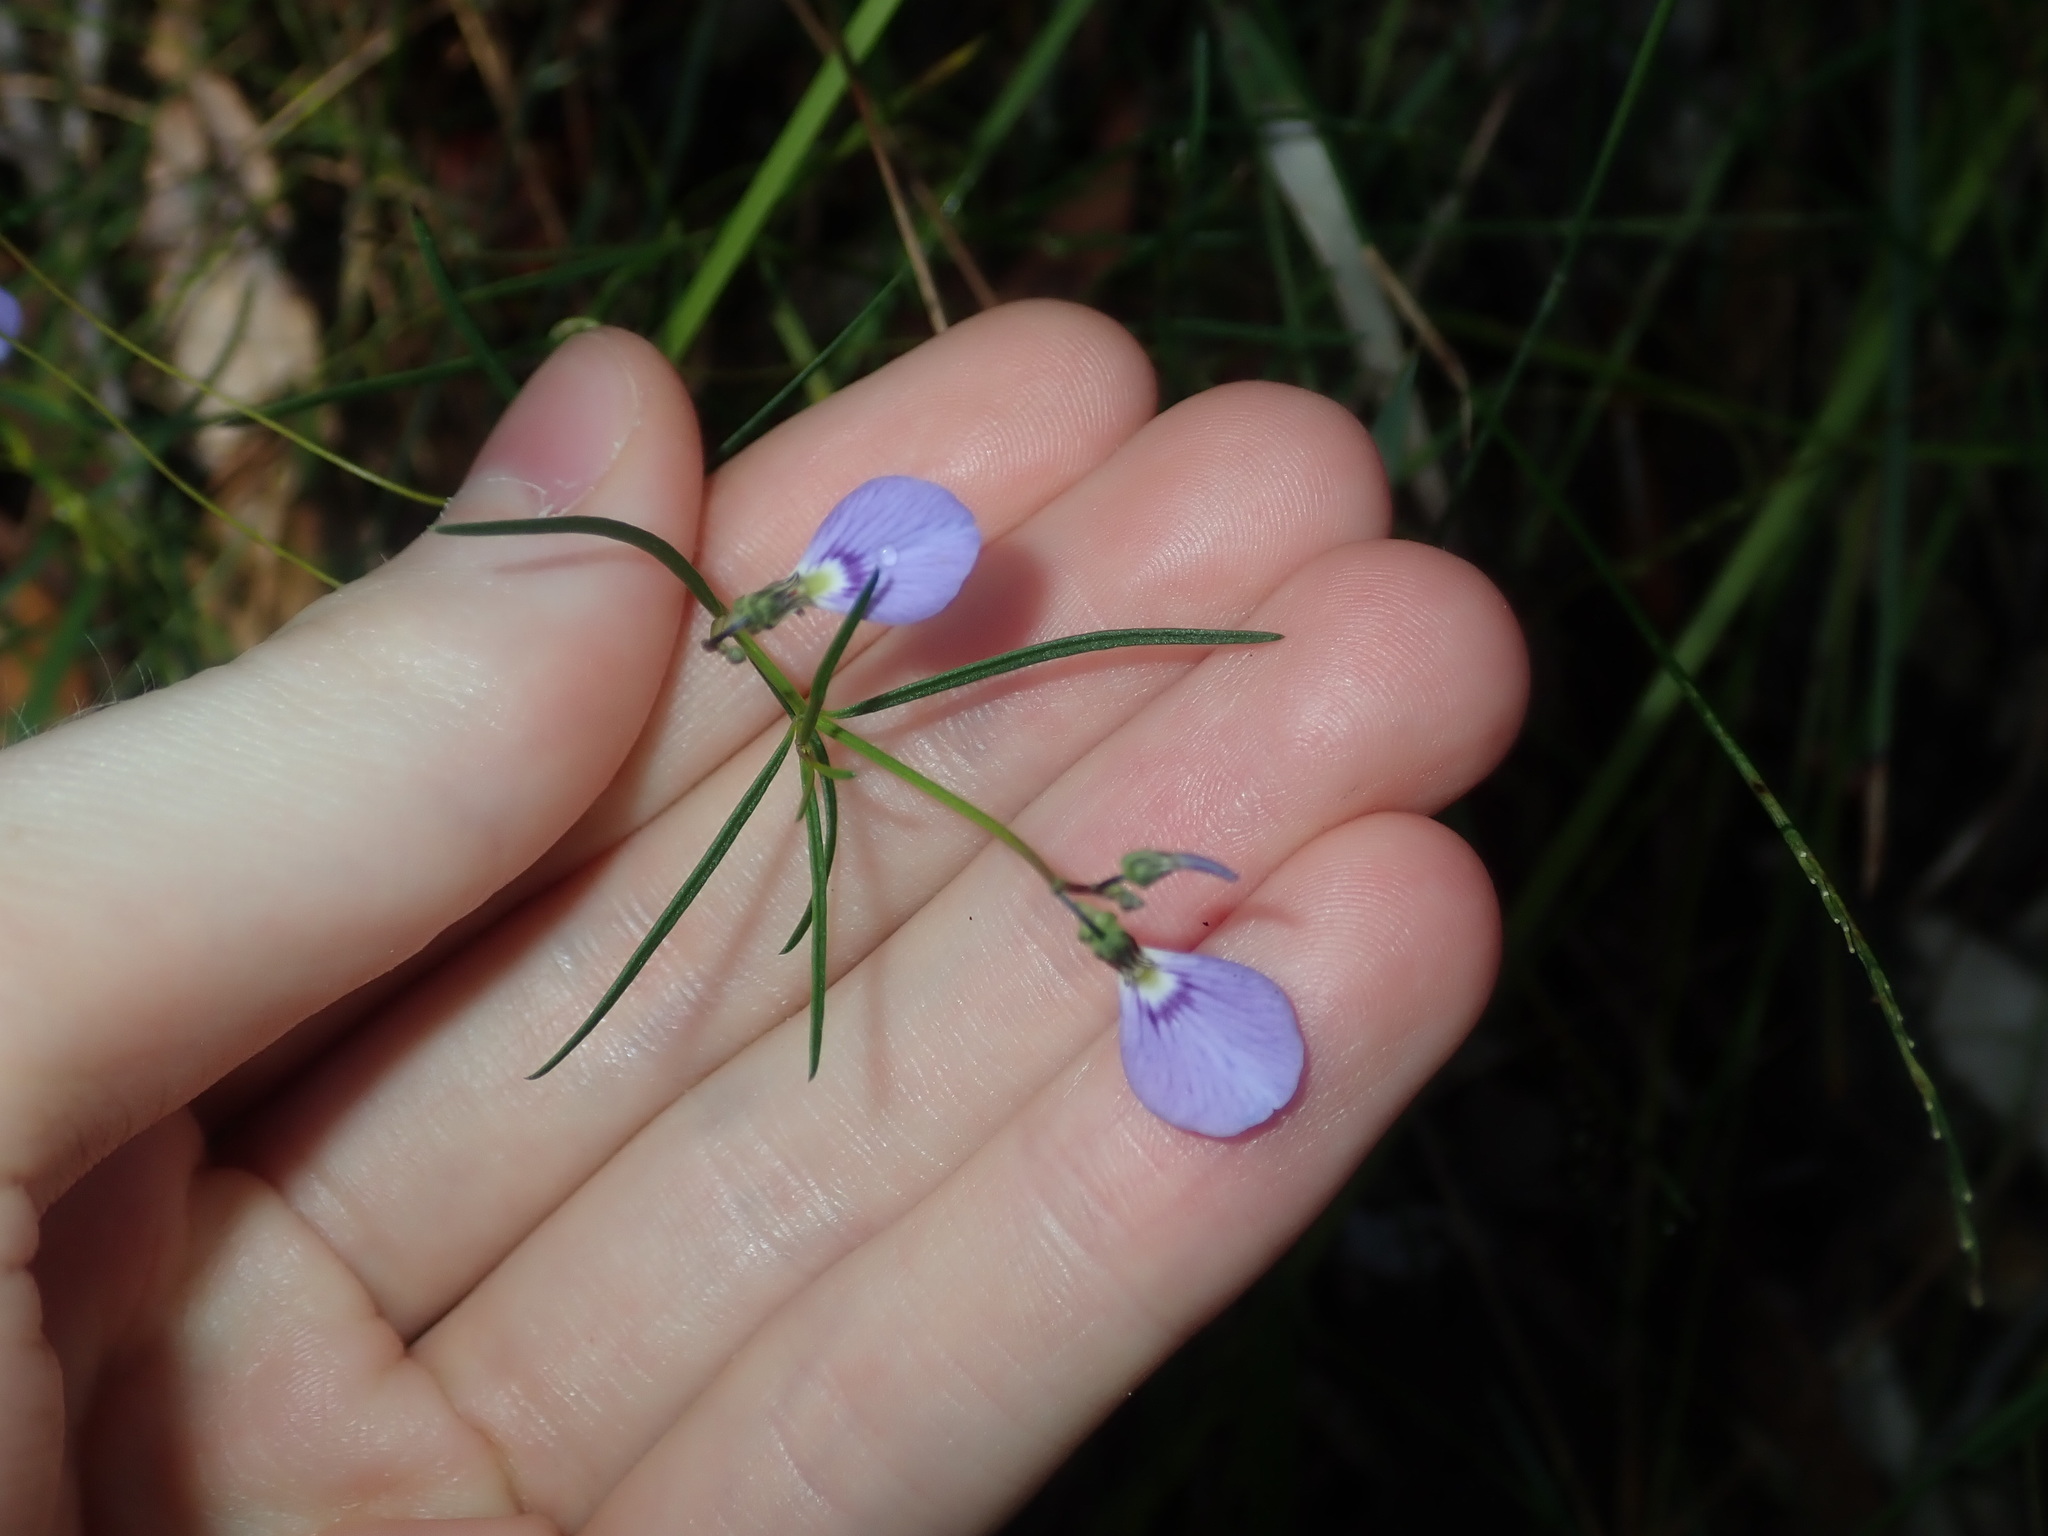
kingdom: Plantae
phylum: Tracheophyta
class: Magnoliopsida
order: Malpighiales
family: Violaceae
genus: Pigea
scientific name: Pigea monopetala
